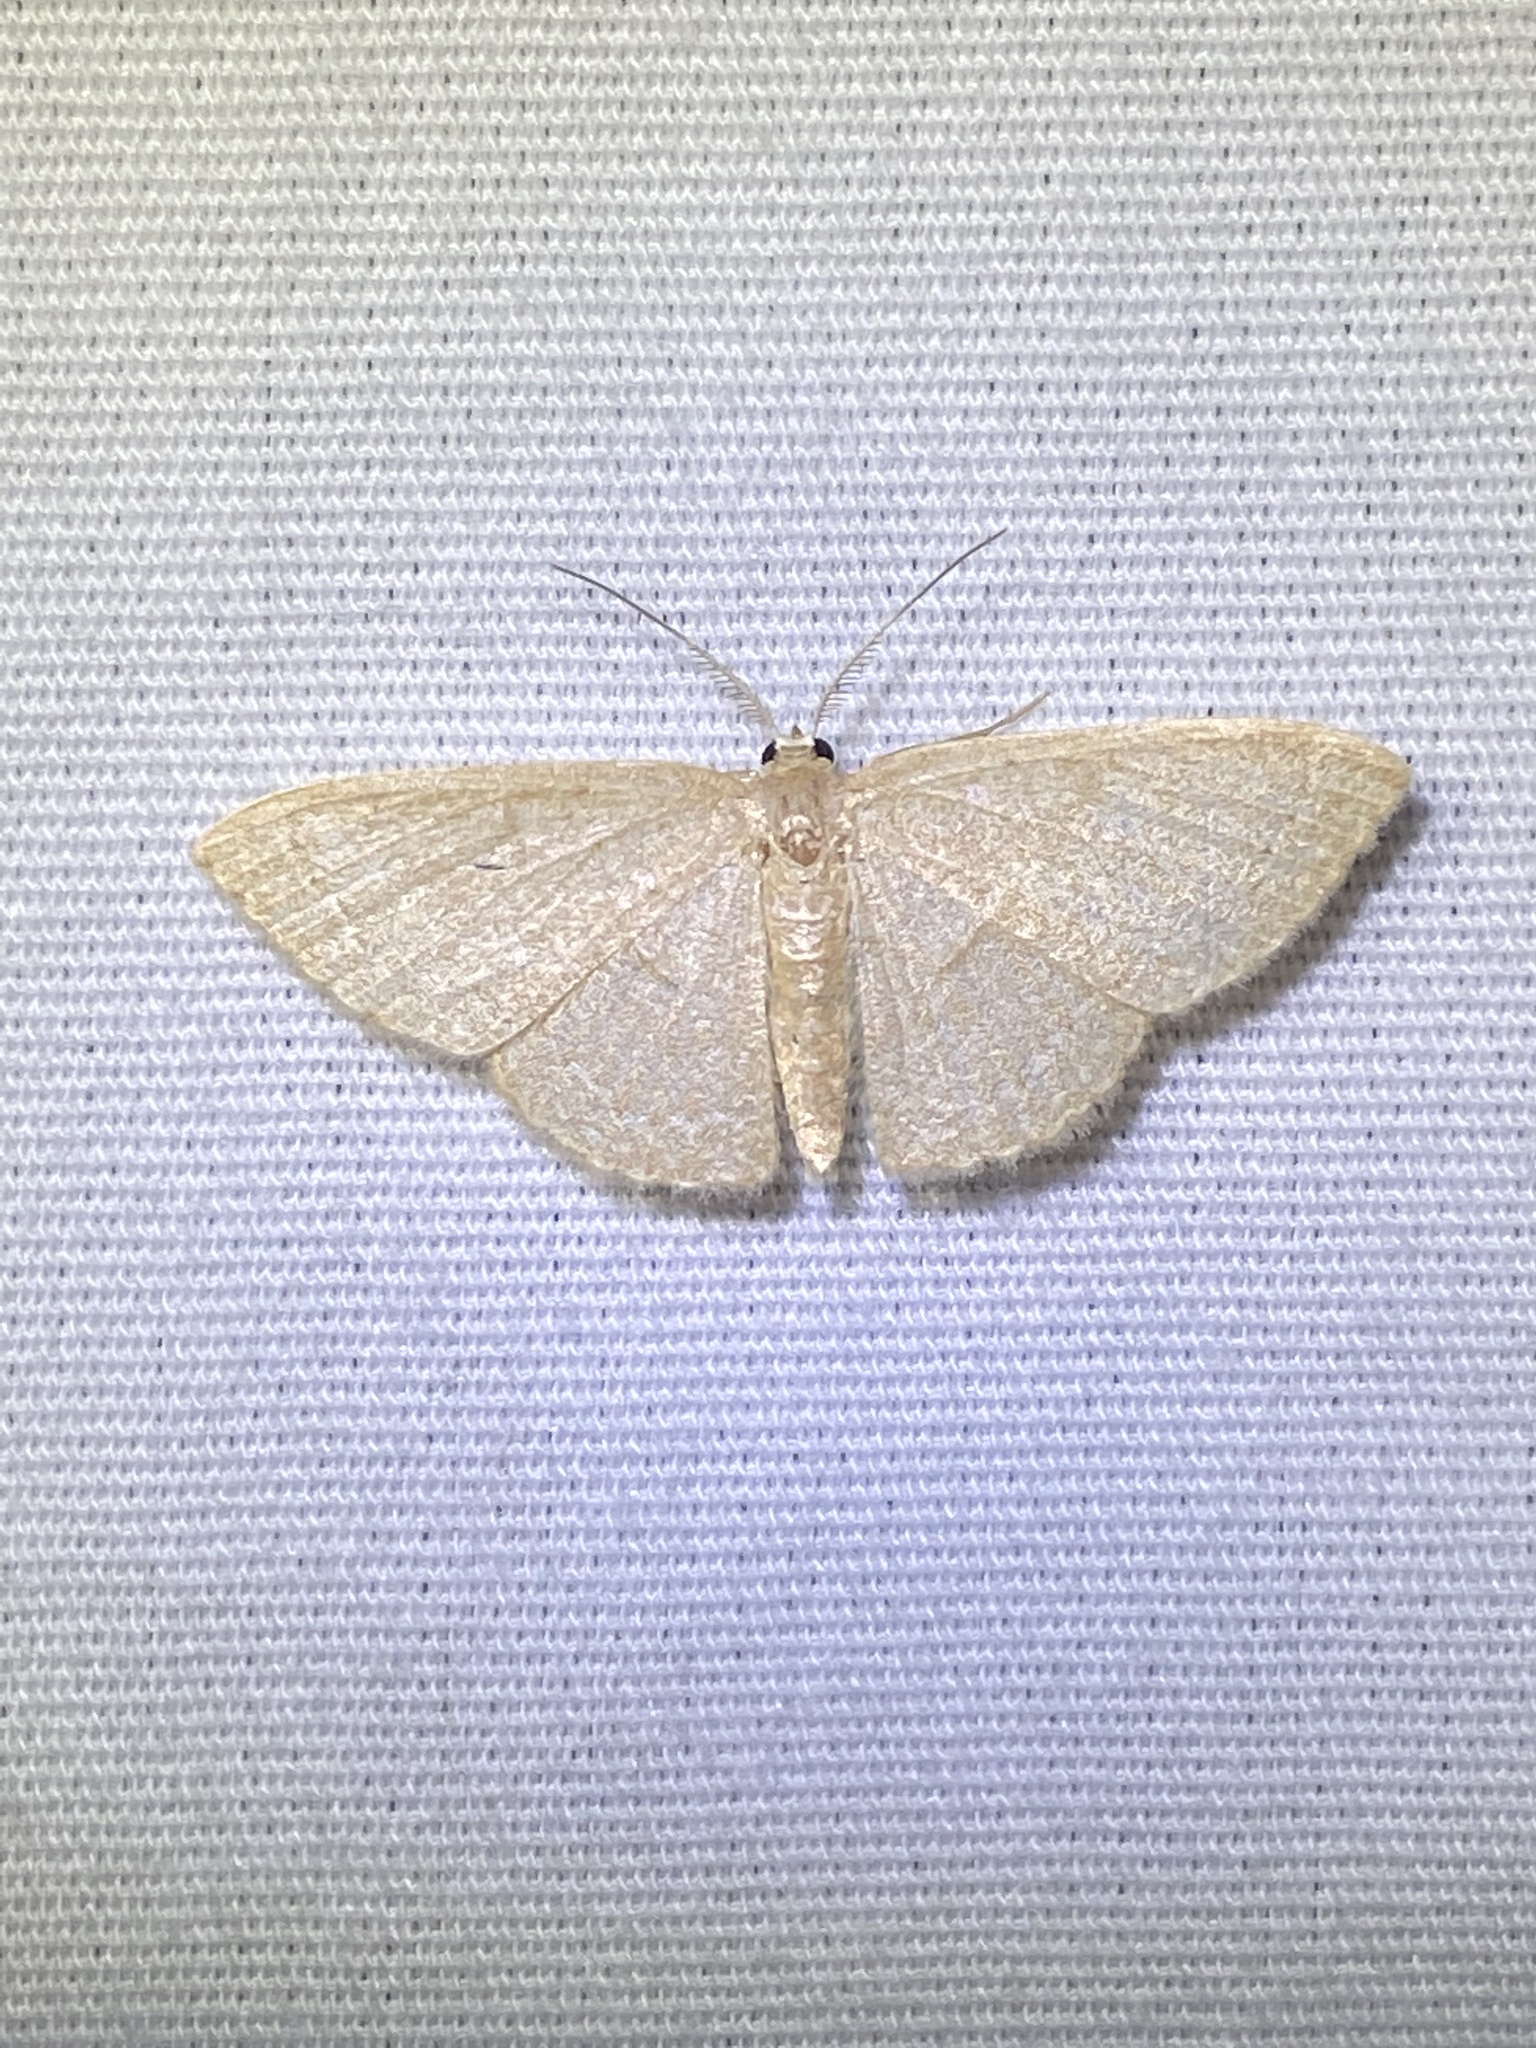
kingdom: Animalia
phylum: Arthropoda
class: Insecta
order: Lepidoptera
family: Geometridae
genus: Pleuroprucha
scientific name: Pleuroprucha insulsaria
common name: Common tan wave
